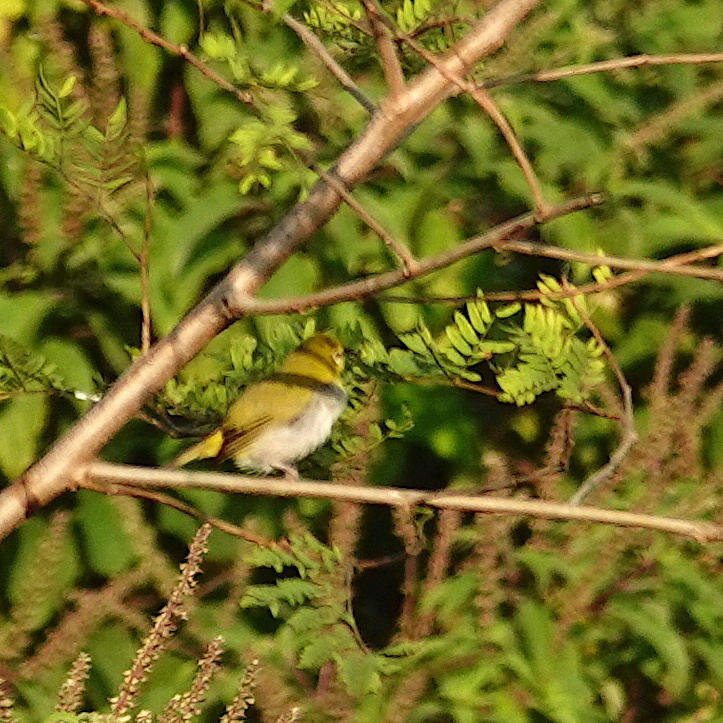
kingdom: Animalia
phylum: Chordata
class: Aves
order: Passeriformes
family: Zosteropidae
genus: Zosterops
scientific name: Zosterops simplex
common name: Swinhoe's white-eye
